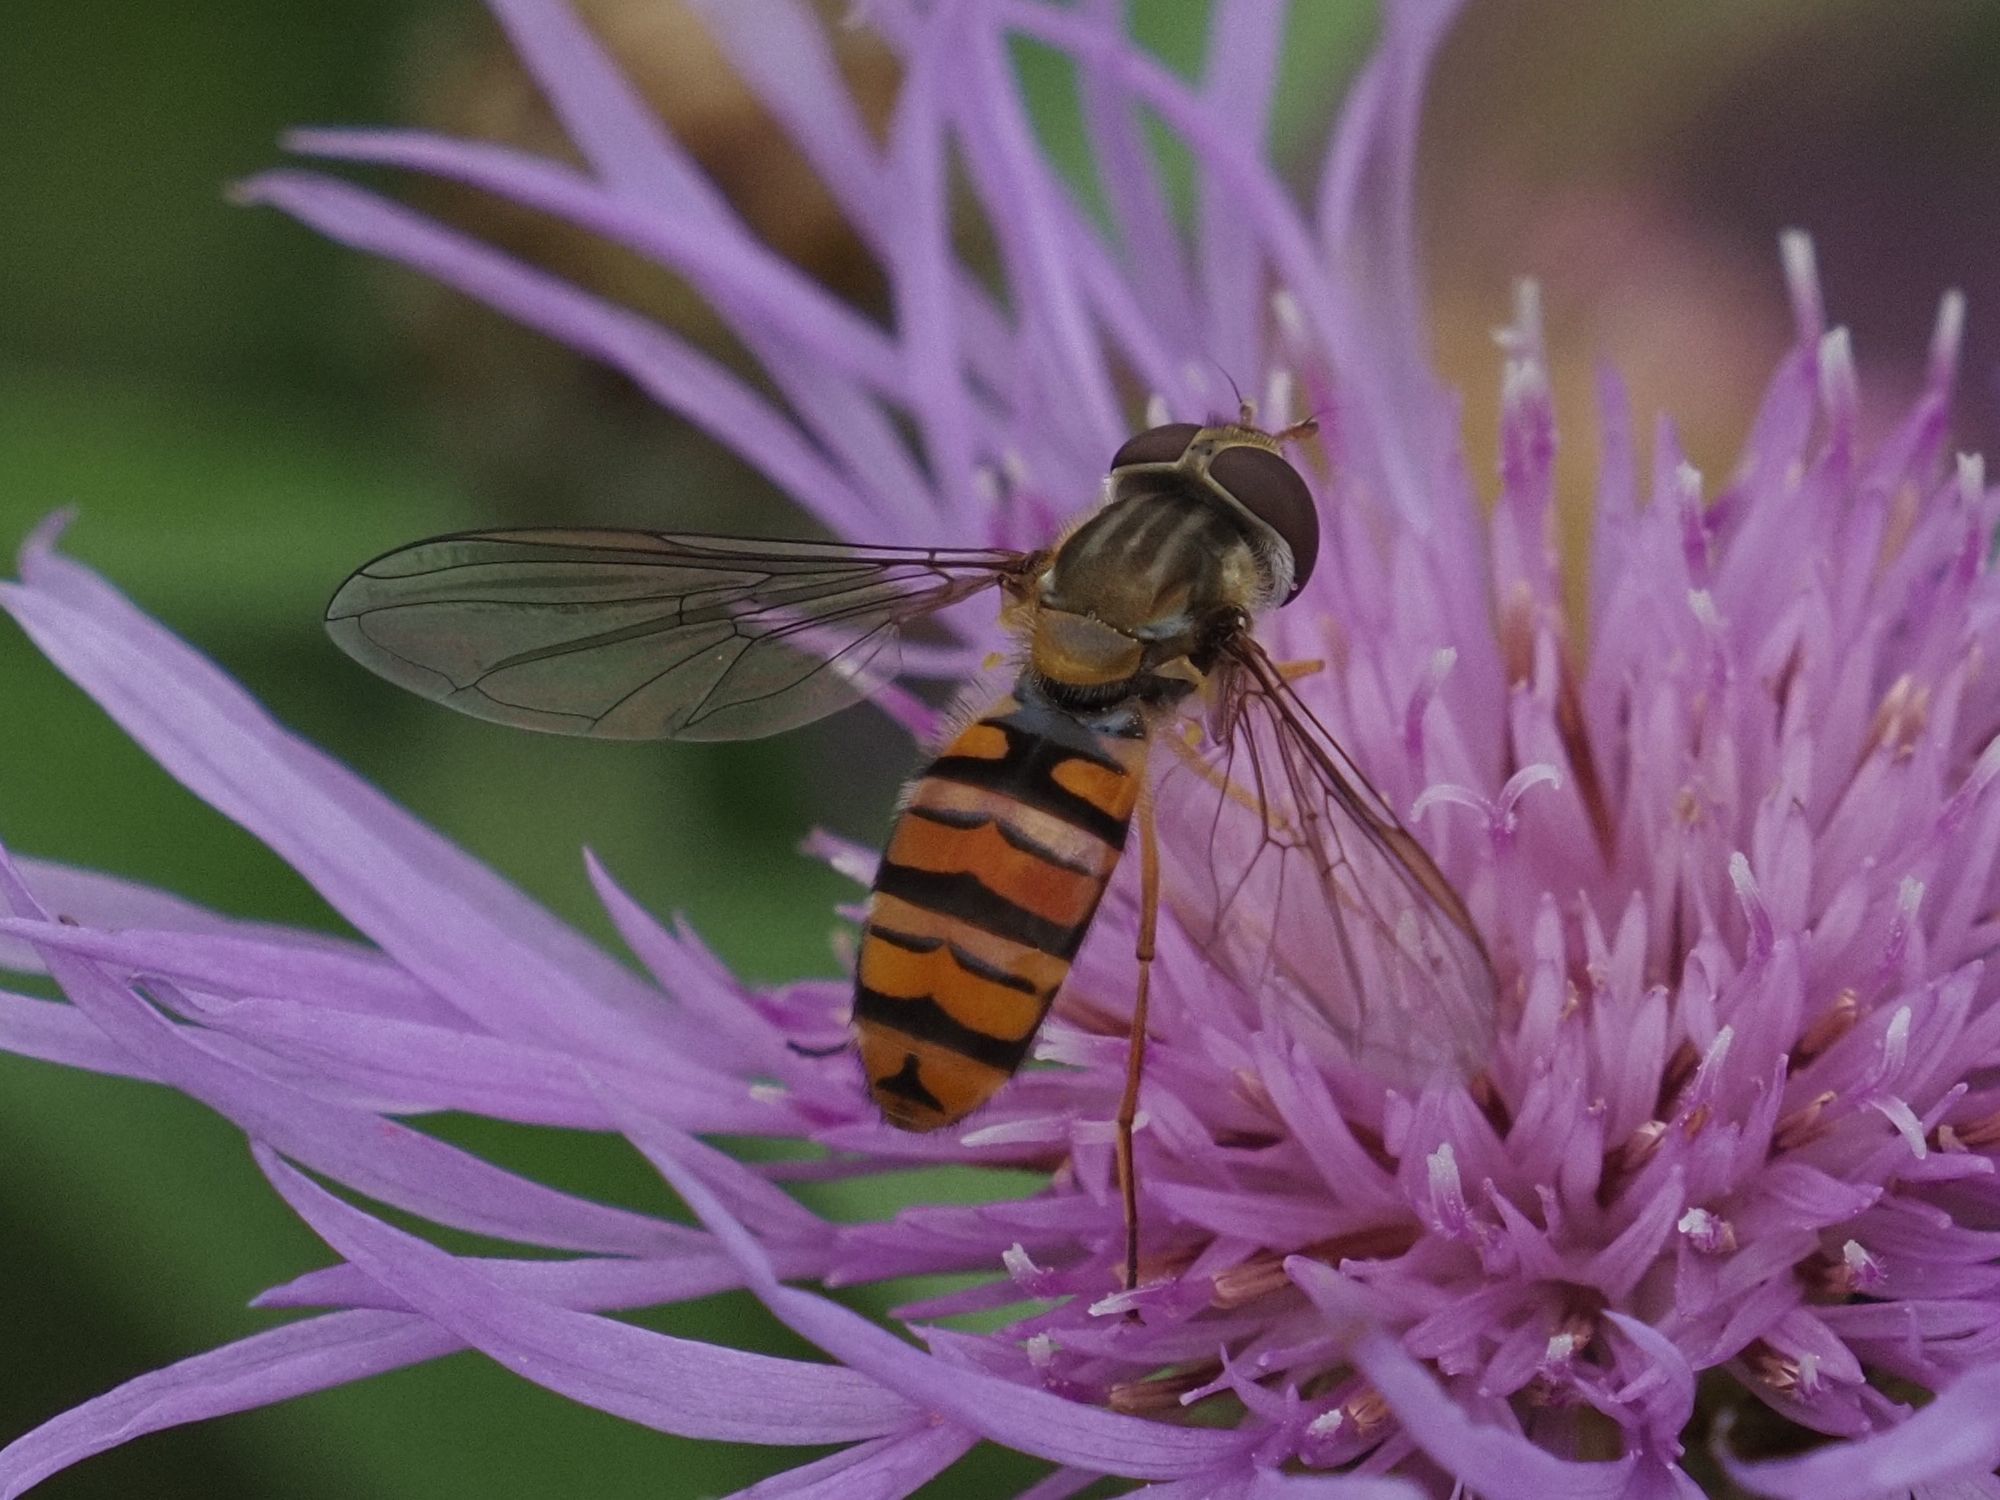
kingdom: Animalia
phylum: Arthropoda
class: Insecta
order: Diptera
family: Syrphidae
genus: Episyrphus
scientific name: Episyrphus balteatus
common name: Marmalade hoverfly
